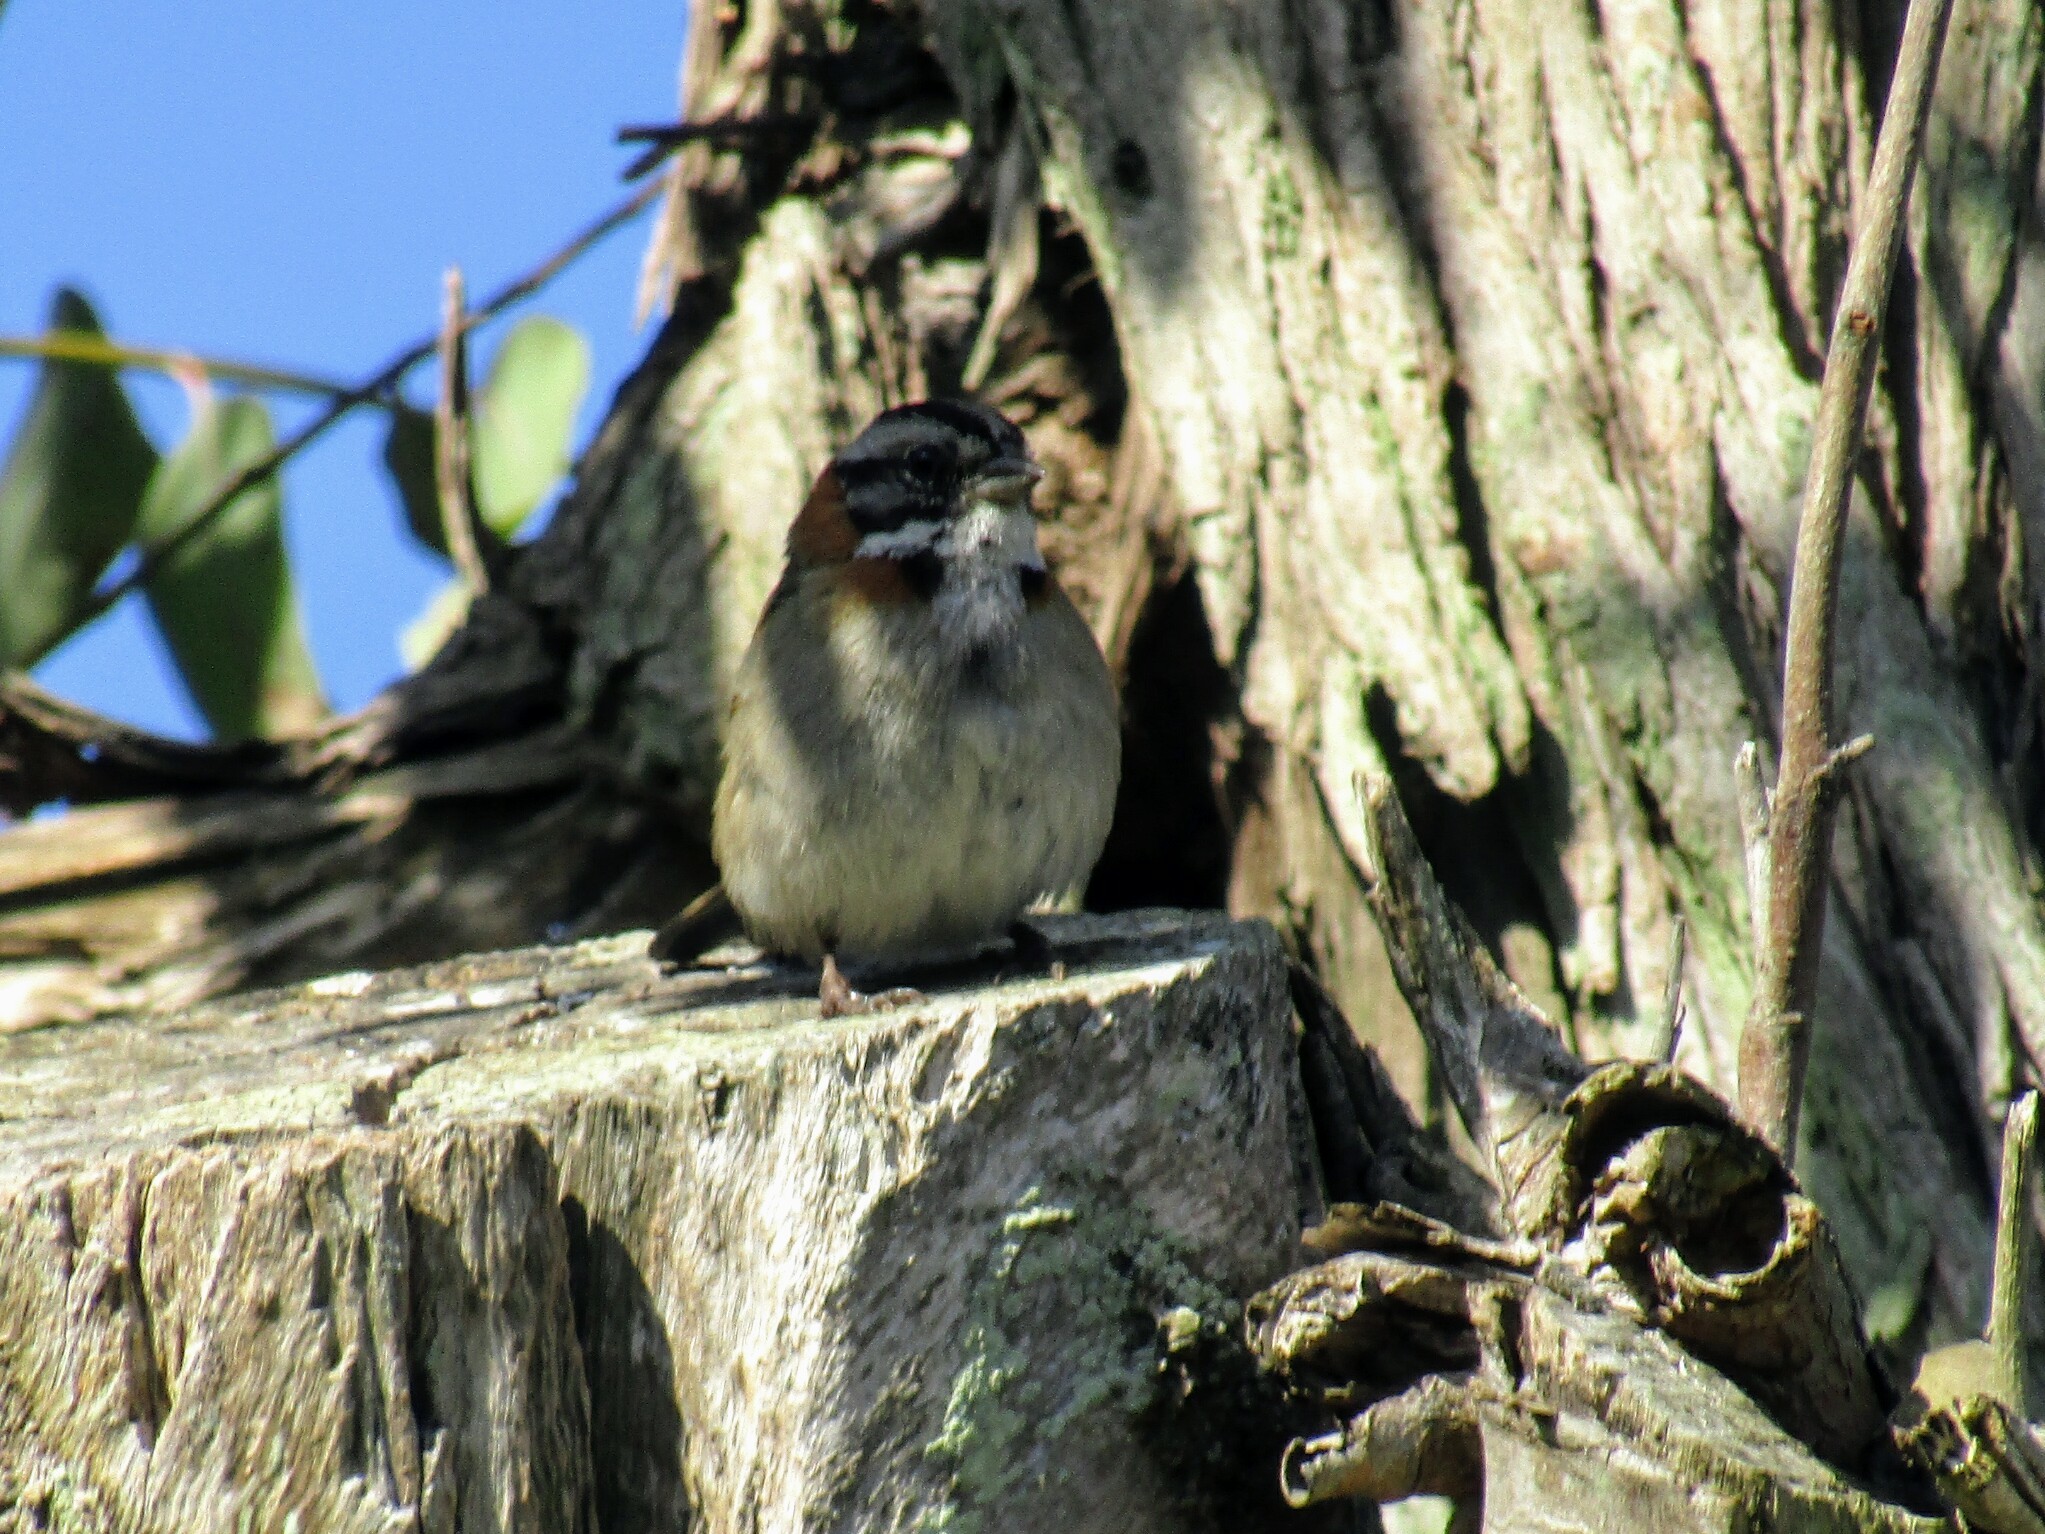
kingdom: Animalia
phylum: Chordata
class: Aves
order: Passeriformes
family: Passerellidae
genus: Zonotrichia
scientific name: Zonotrichia capensis
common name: Rufous-collared sparrow
